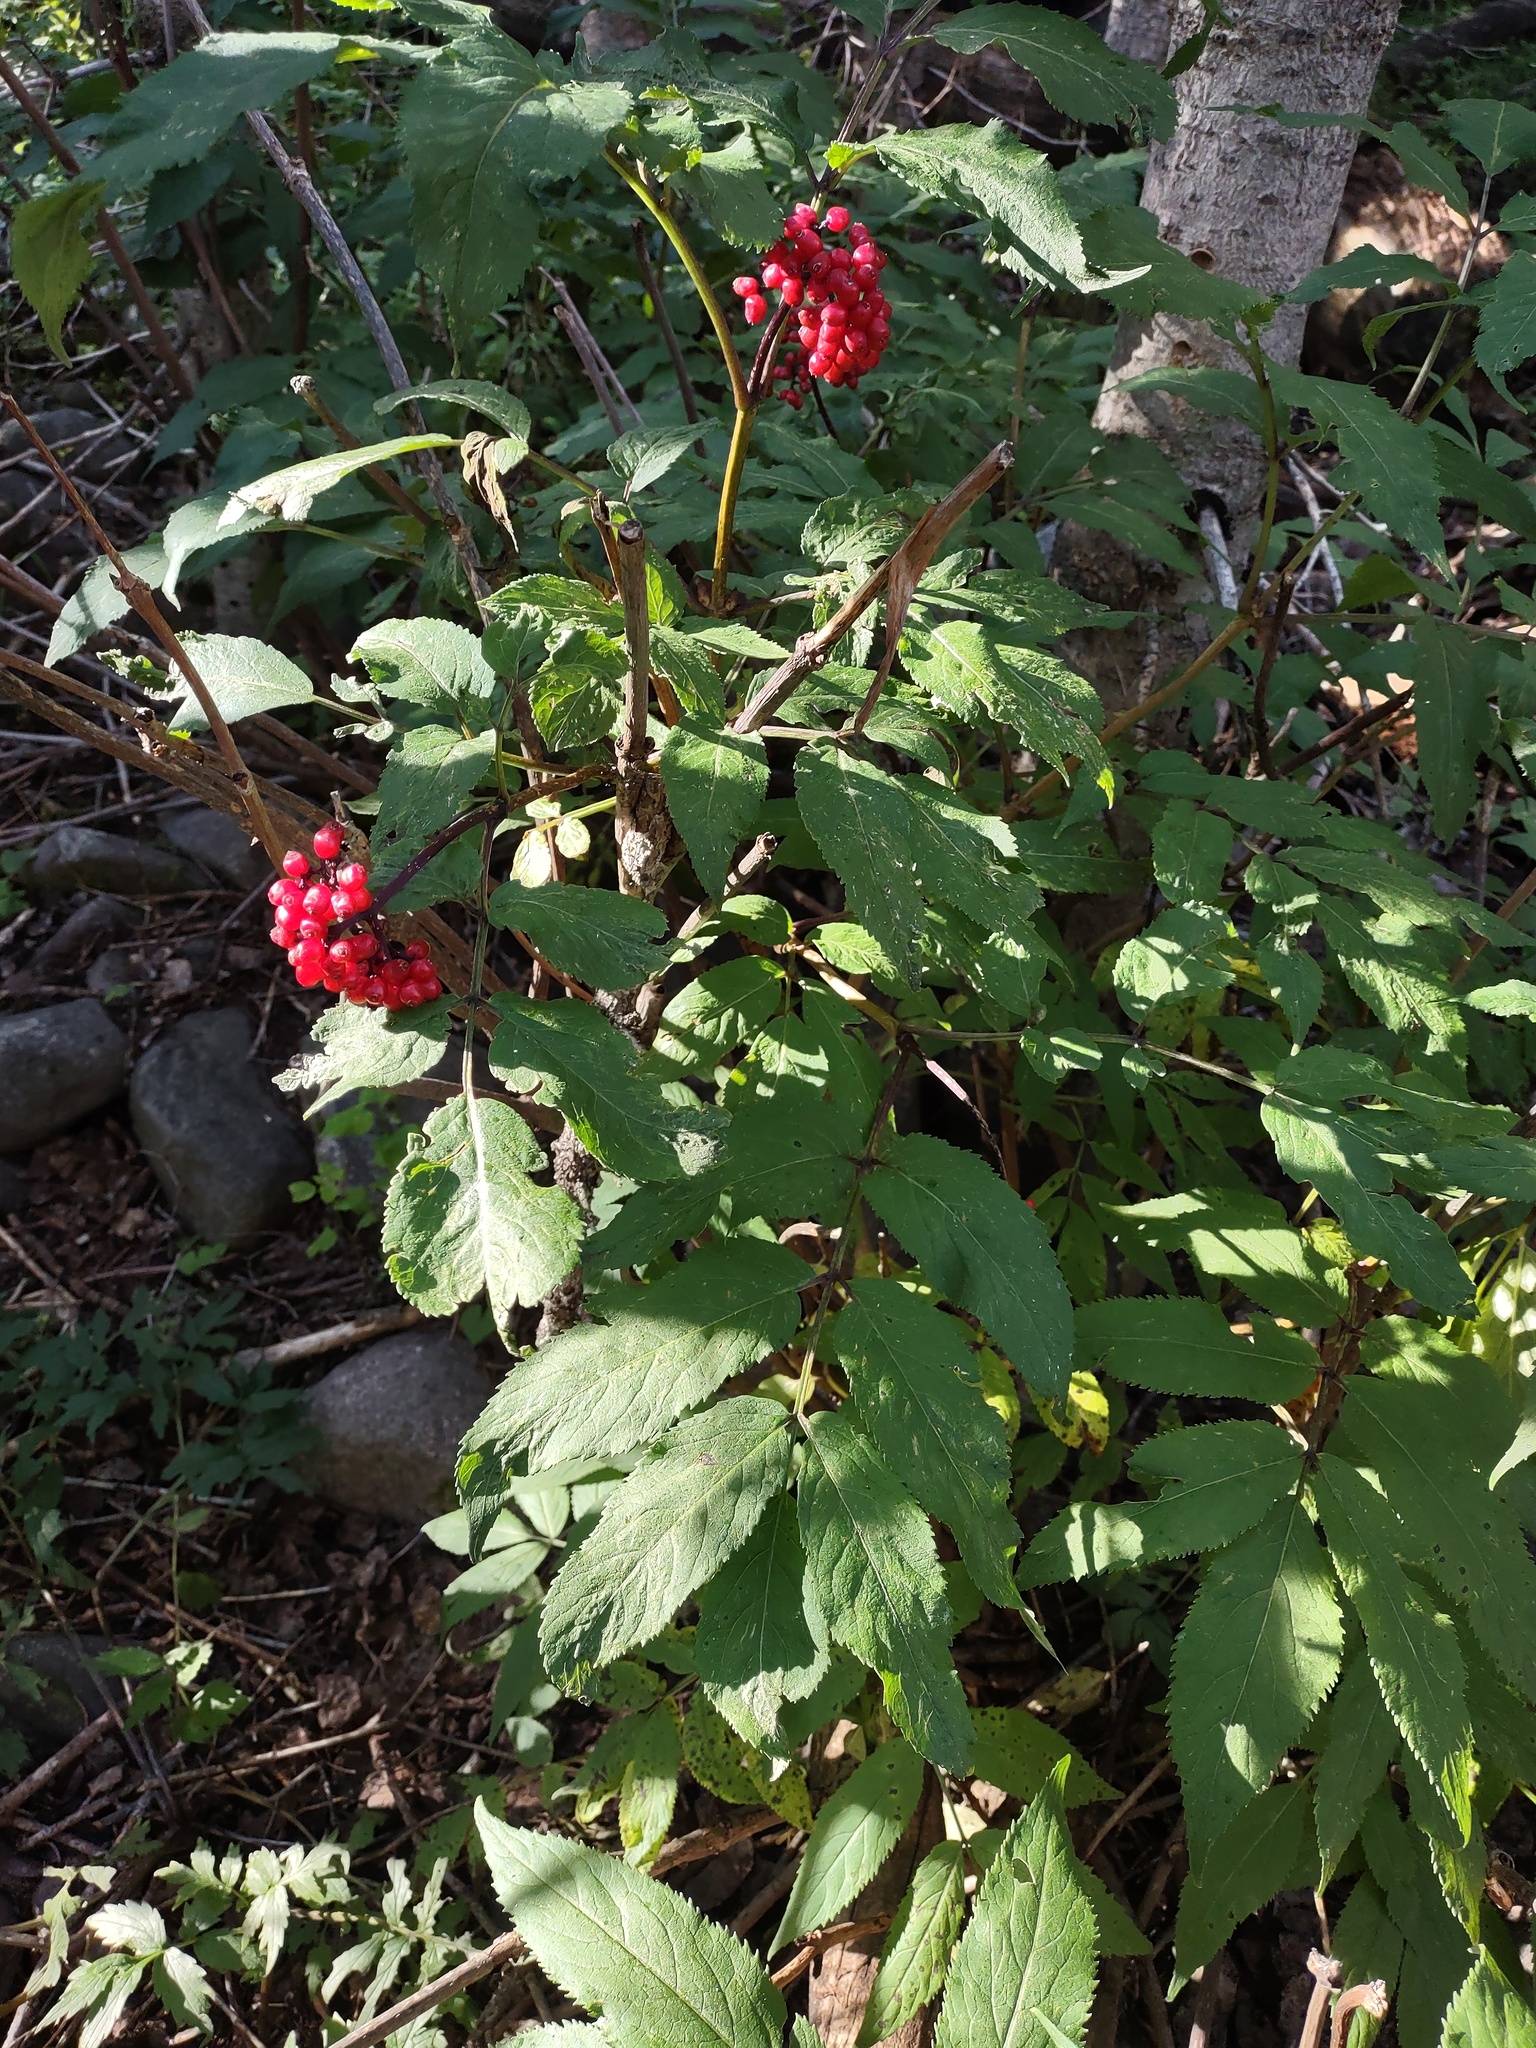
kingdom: Plantae
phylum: Tracheophyta
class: Magnoliopsida
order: Dipsacales
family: Viburnaceae
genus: Sambucus
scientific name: Sambucus racemosa
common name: Red-berried elder
